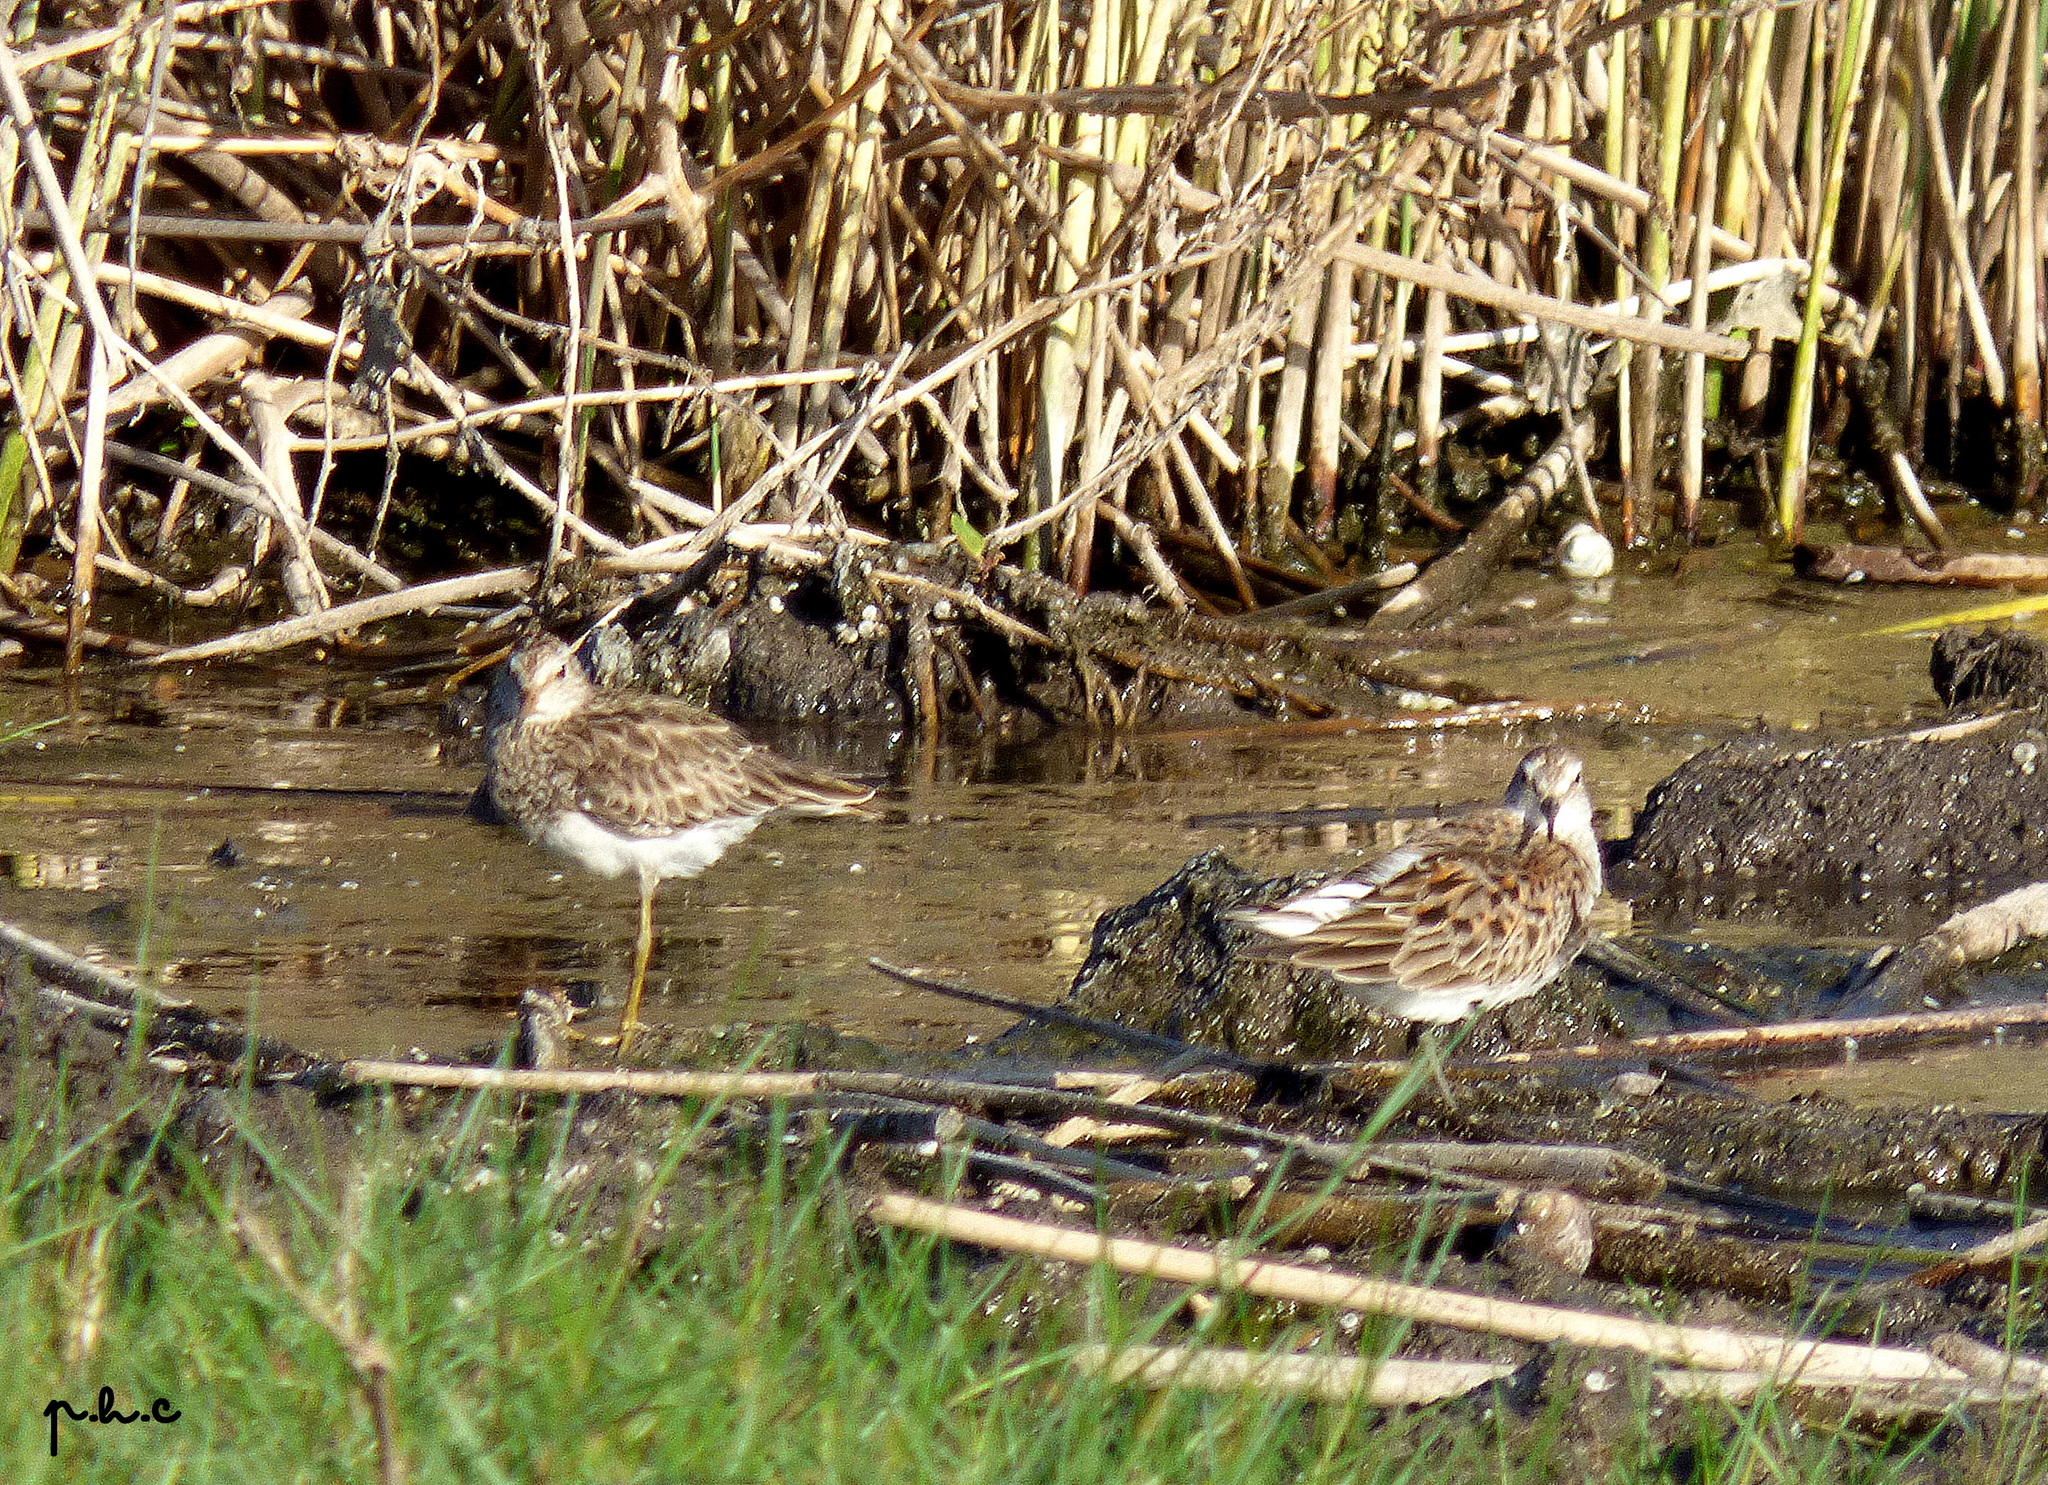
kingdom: Animalia
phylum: Chordata
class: Aves
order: Charadriiformes
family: Scolopacidae
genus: Calidris
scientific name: Calidris melanotos
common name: Pectoral sandpiper
